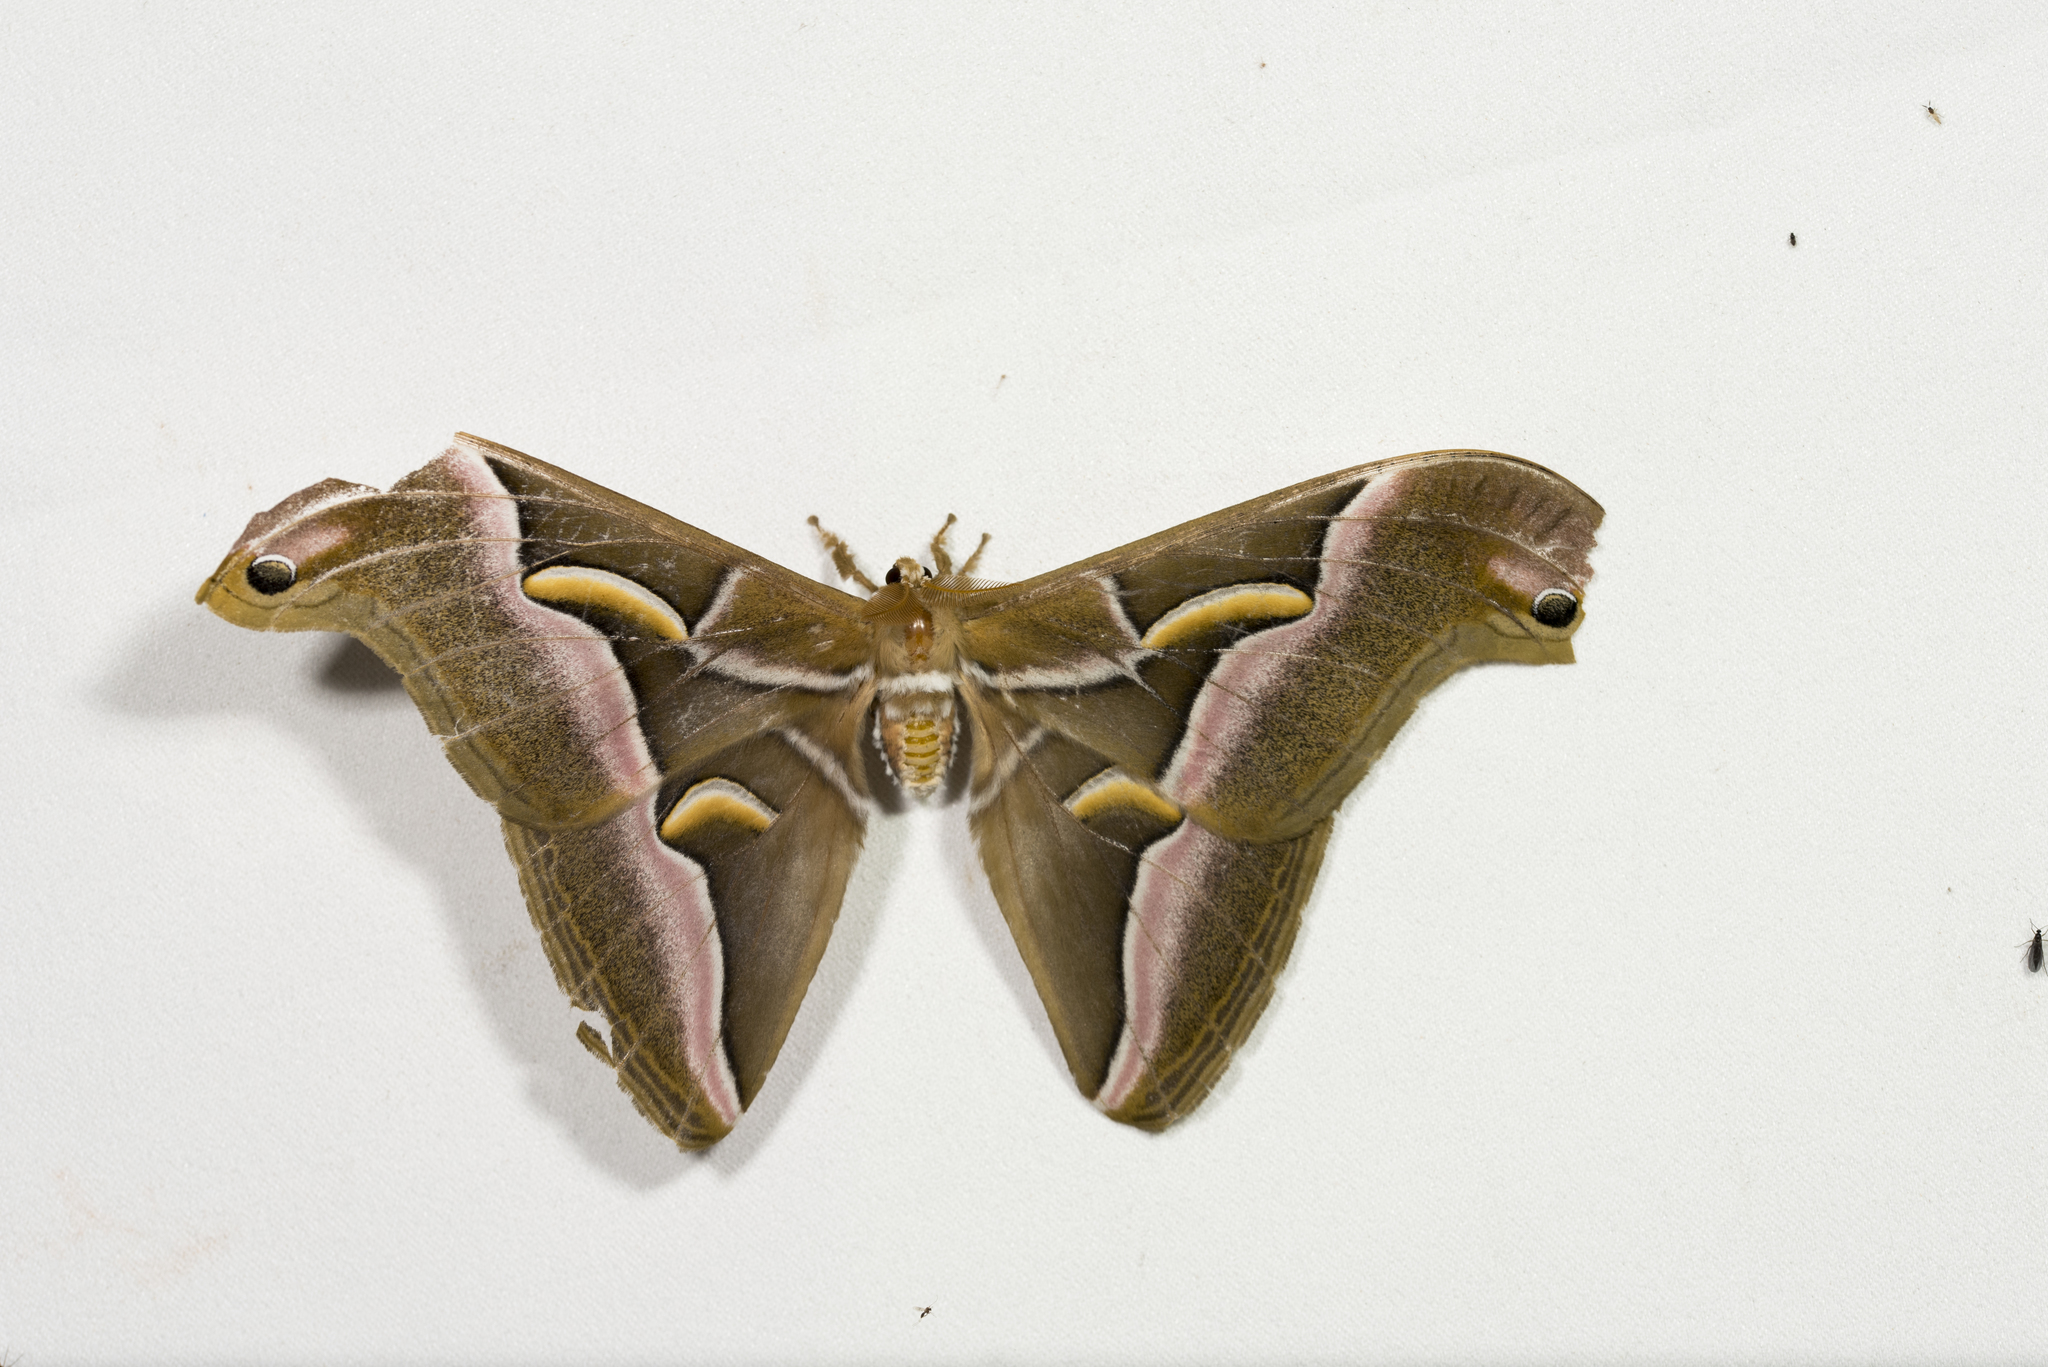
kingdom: Animalia
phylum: Arthropoda
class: Insecta
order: Lepidoptera
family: Saturniidae
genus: Samia
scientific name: Samia wangi
